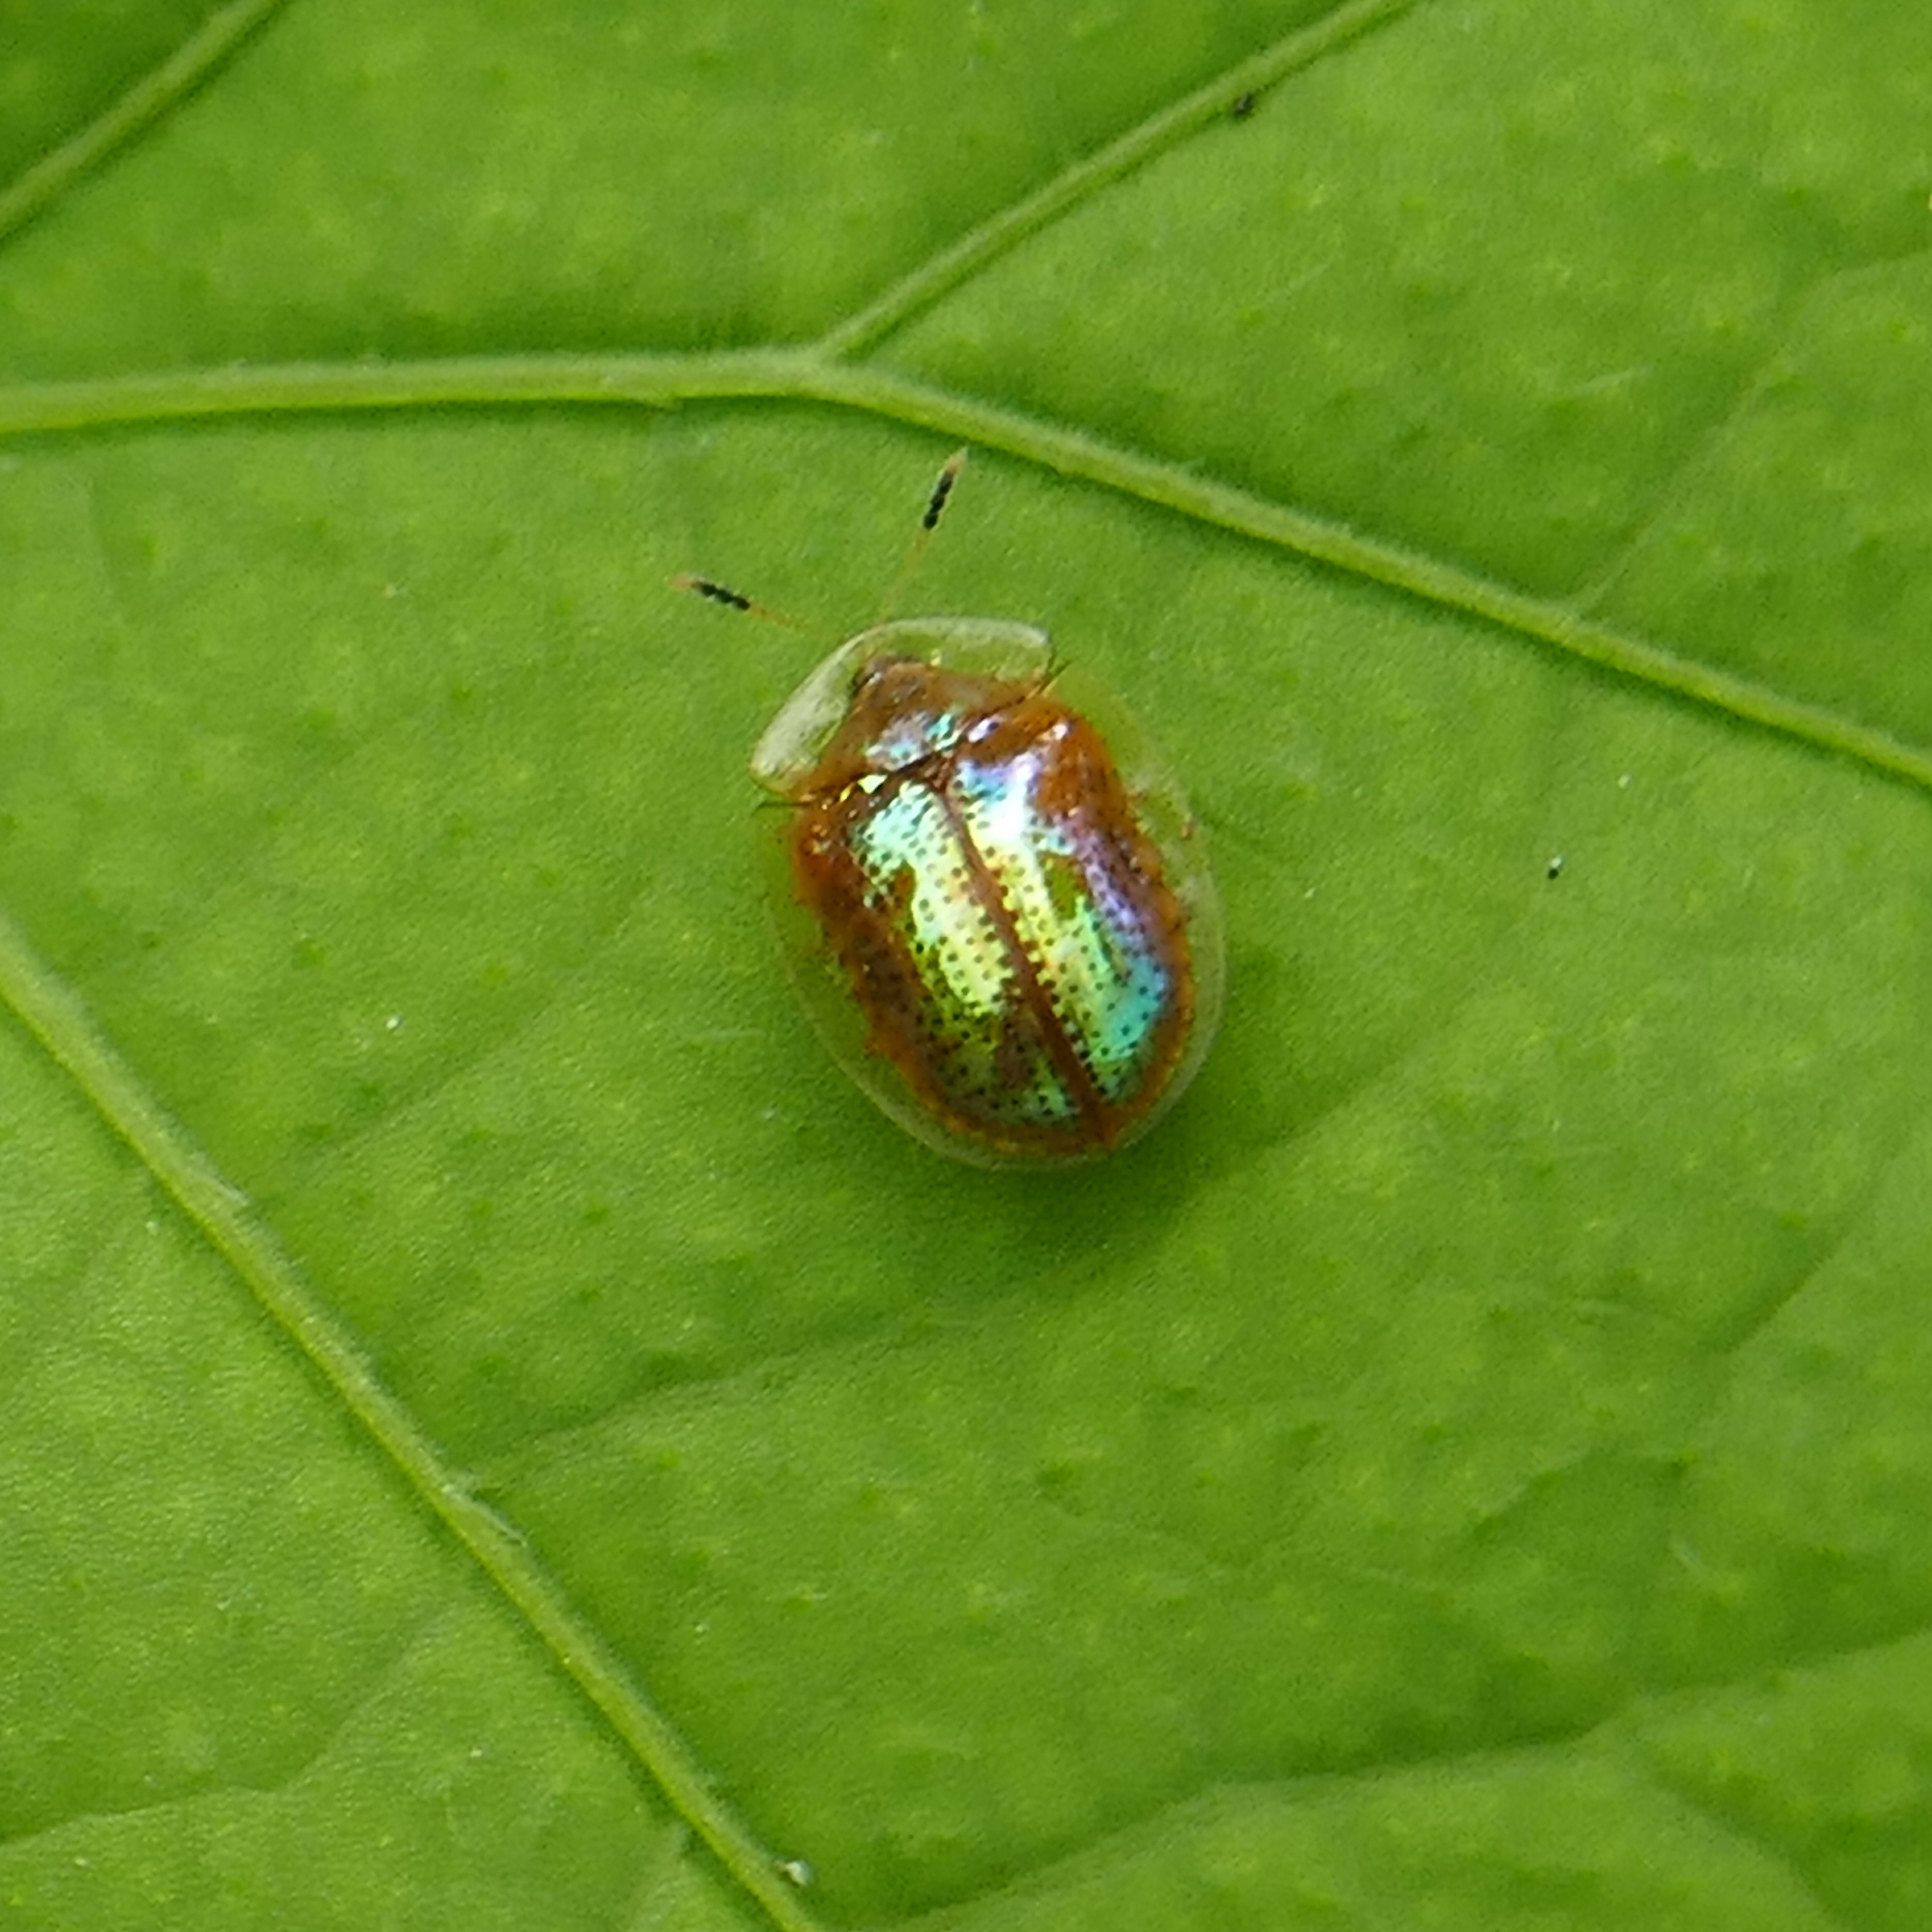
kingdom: Animalia
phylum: Arthropoda
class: Insecta
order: Coleoptera
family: Chrysomelidae
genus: Metrionella
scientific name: Metrionella bilimeki
